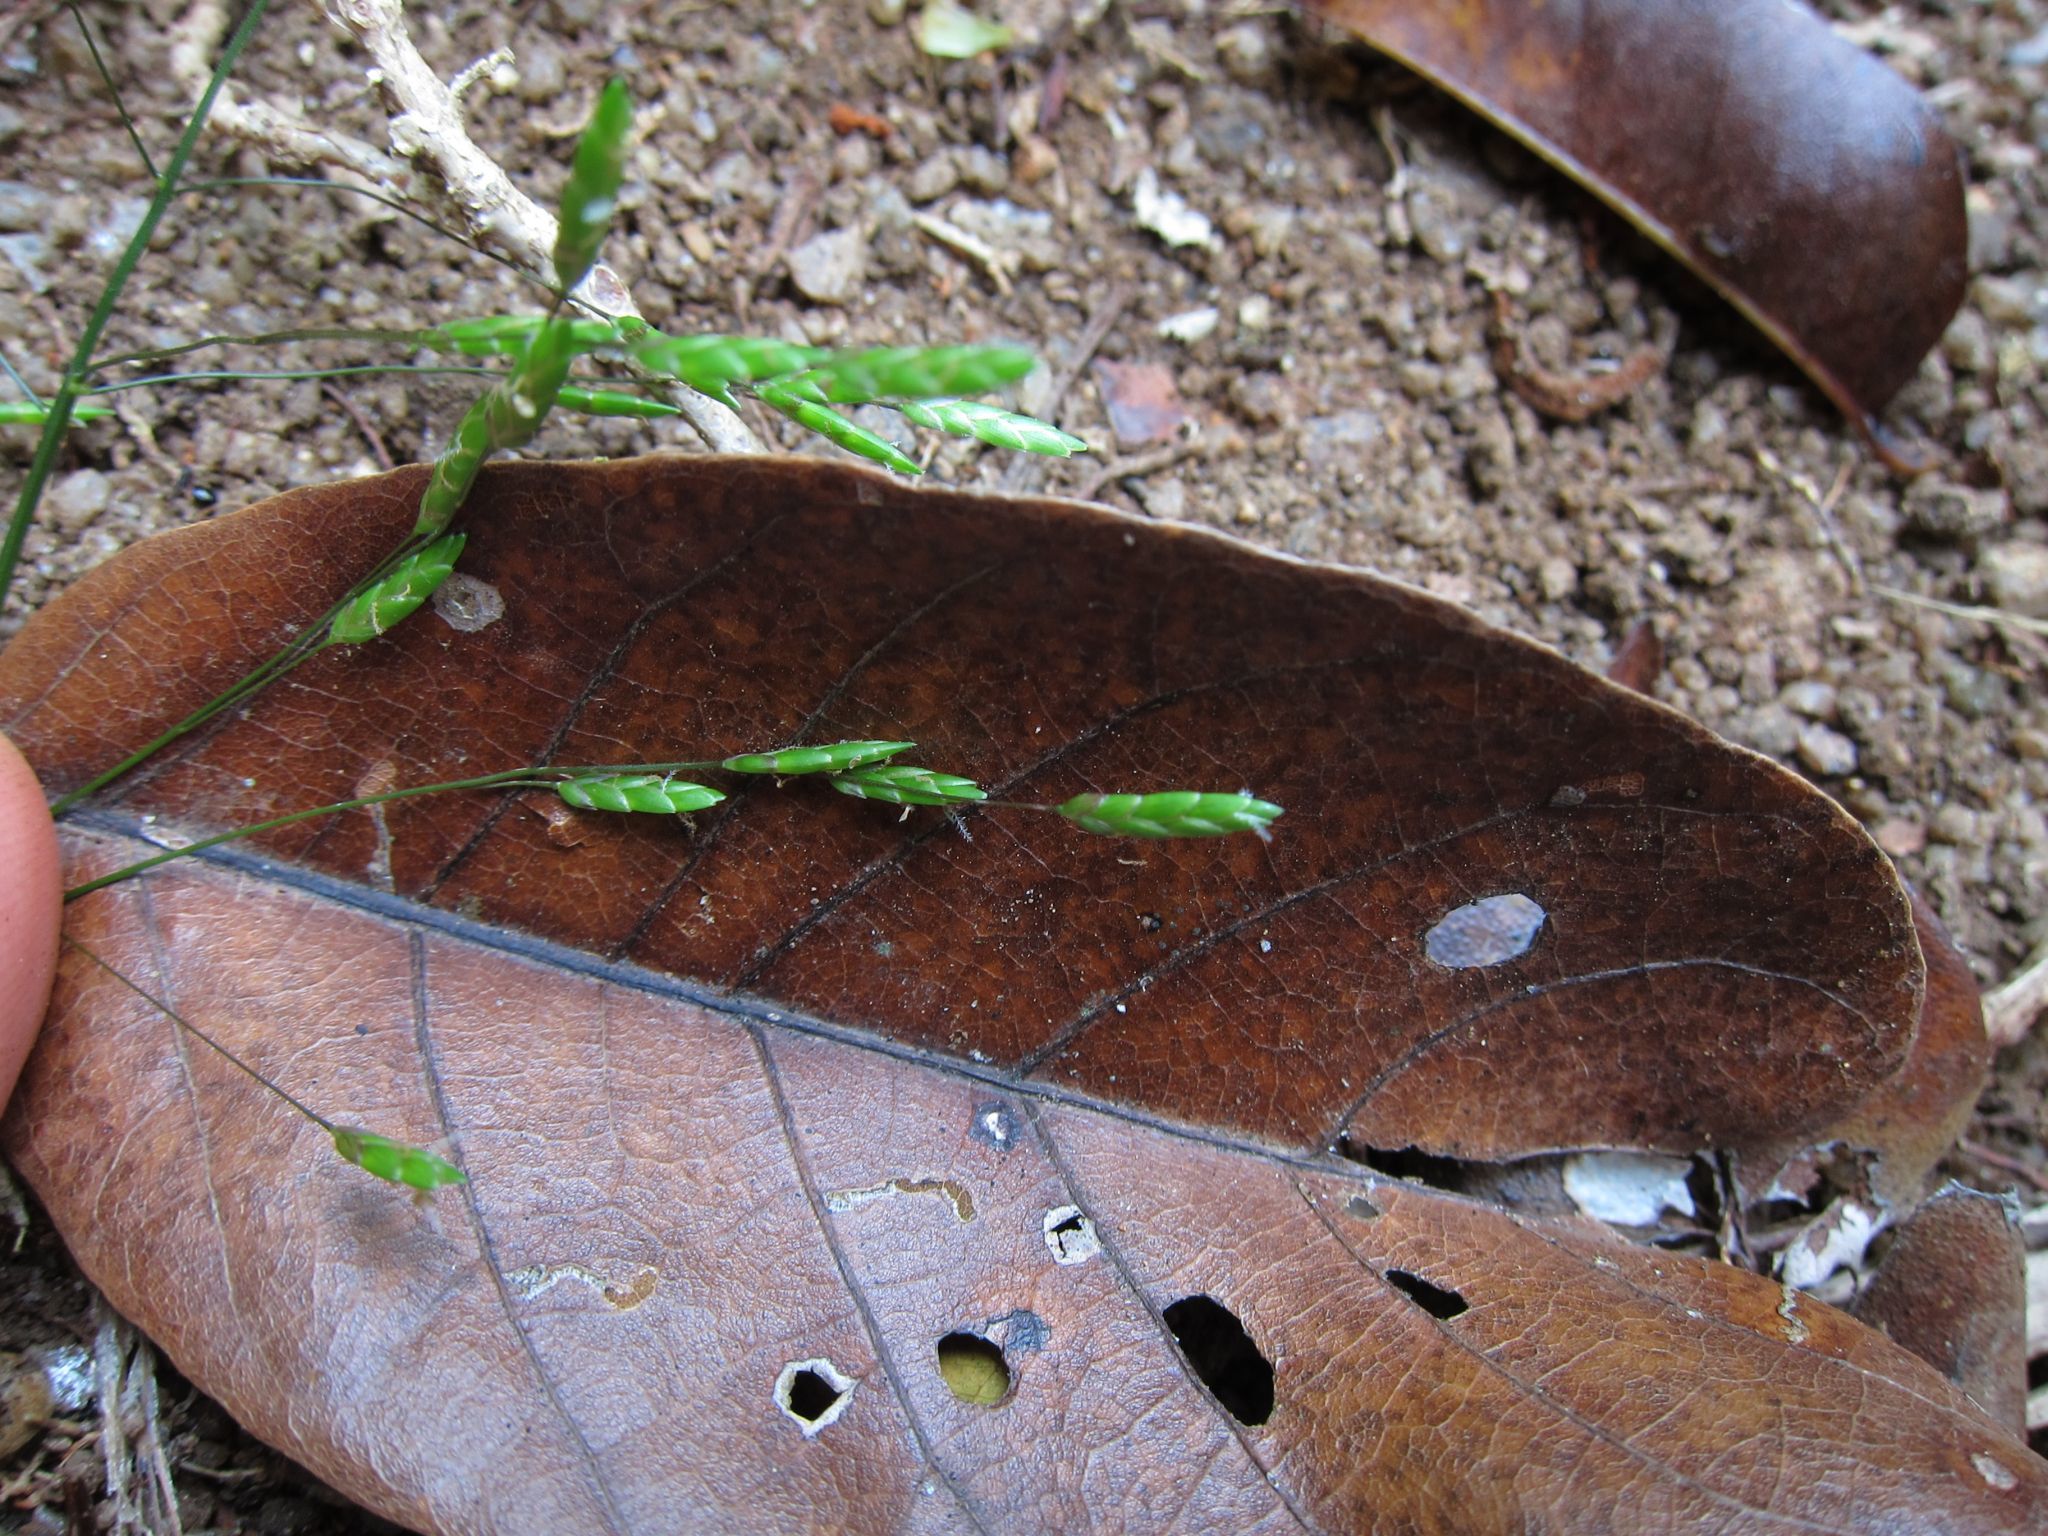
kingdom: Plantae
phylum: Tracheophyta
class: Liliopsida
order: Poales
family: Poaceae
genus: Megastachya
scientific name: Megastachya mucronata
